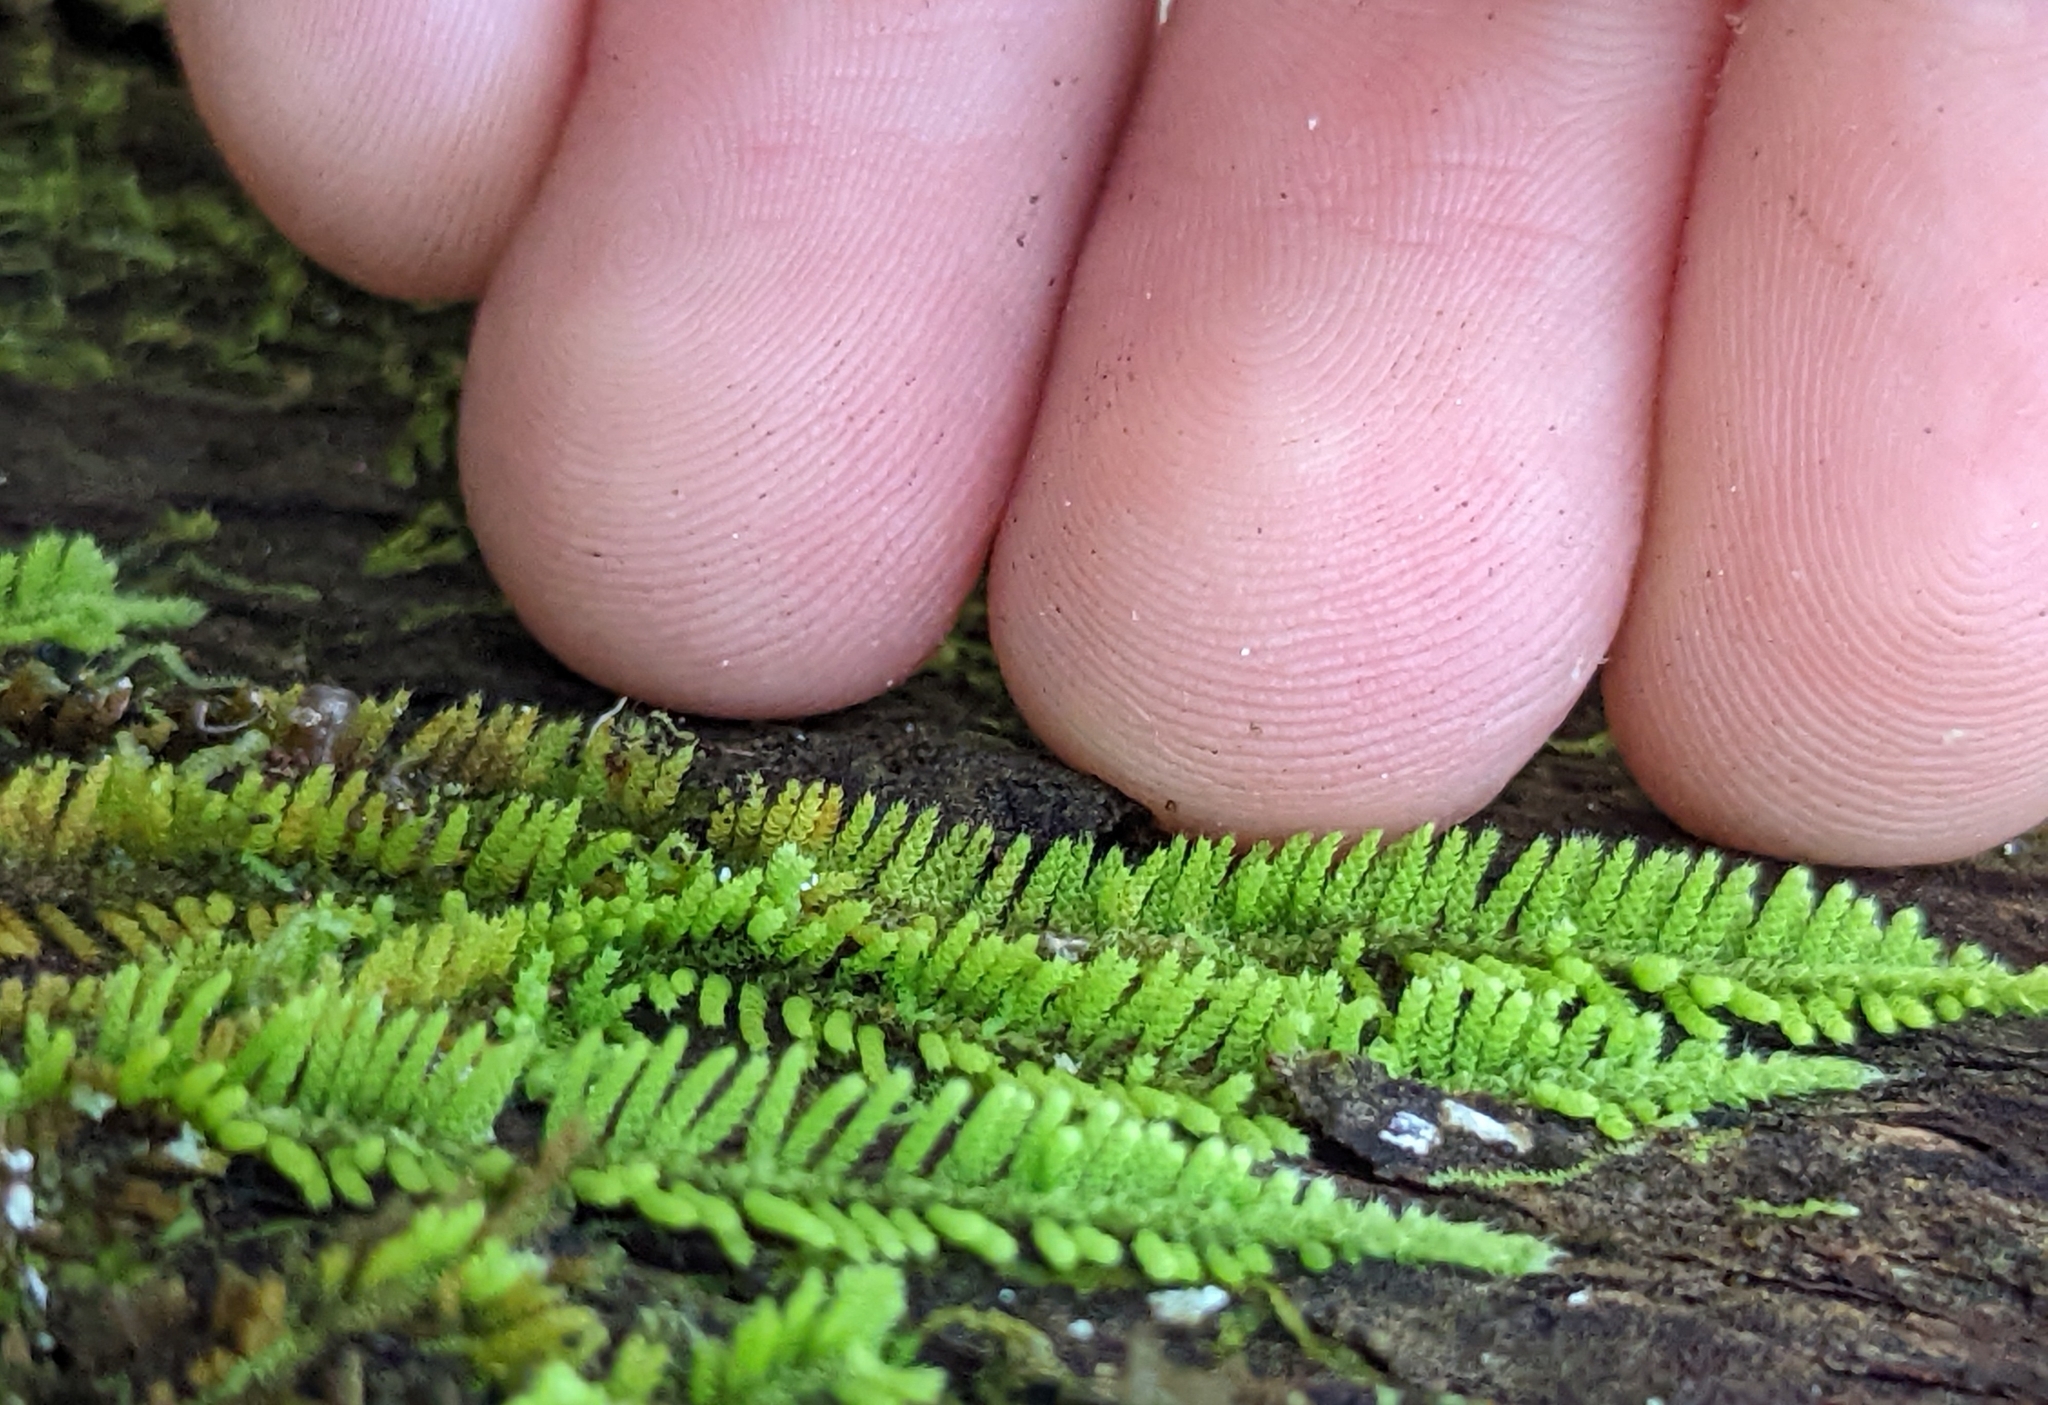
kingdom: Plantae
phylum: Bryophyta
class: Bryopsida
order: Hypnales
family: Theliaceae
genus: Thelia
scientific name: Thelia hirtella
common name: Common thelia
